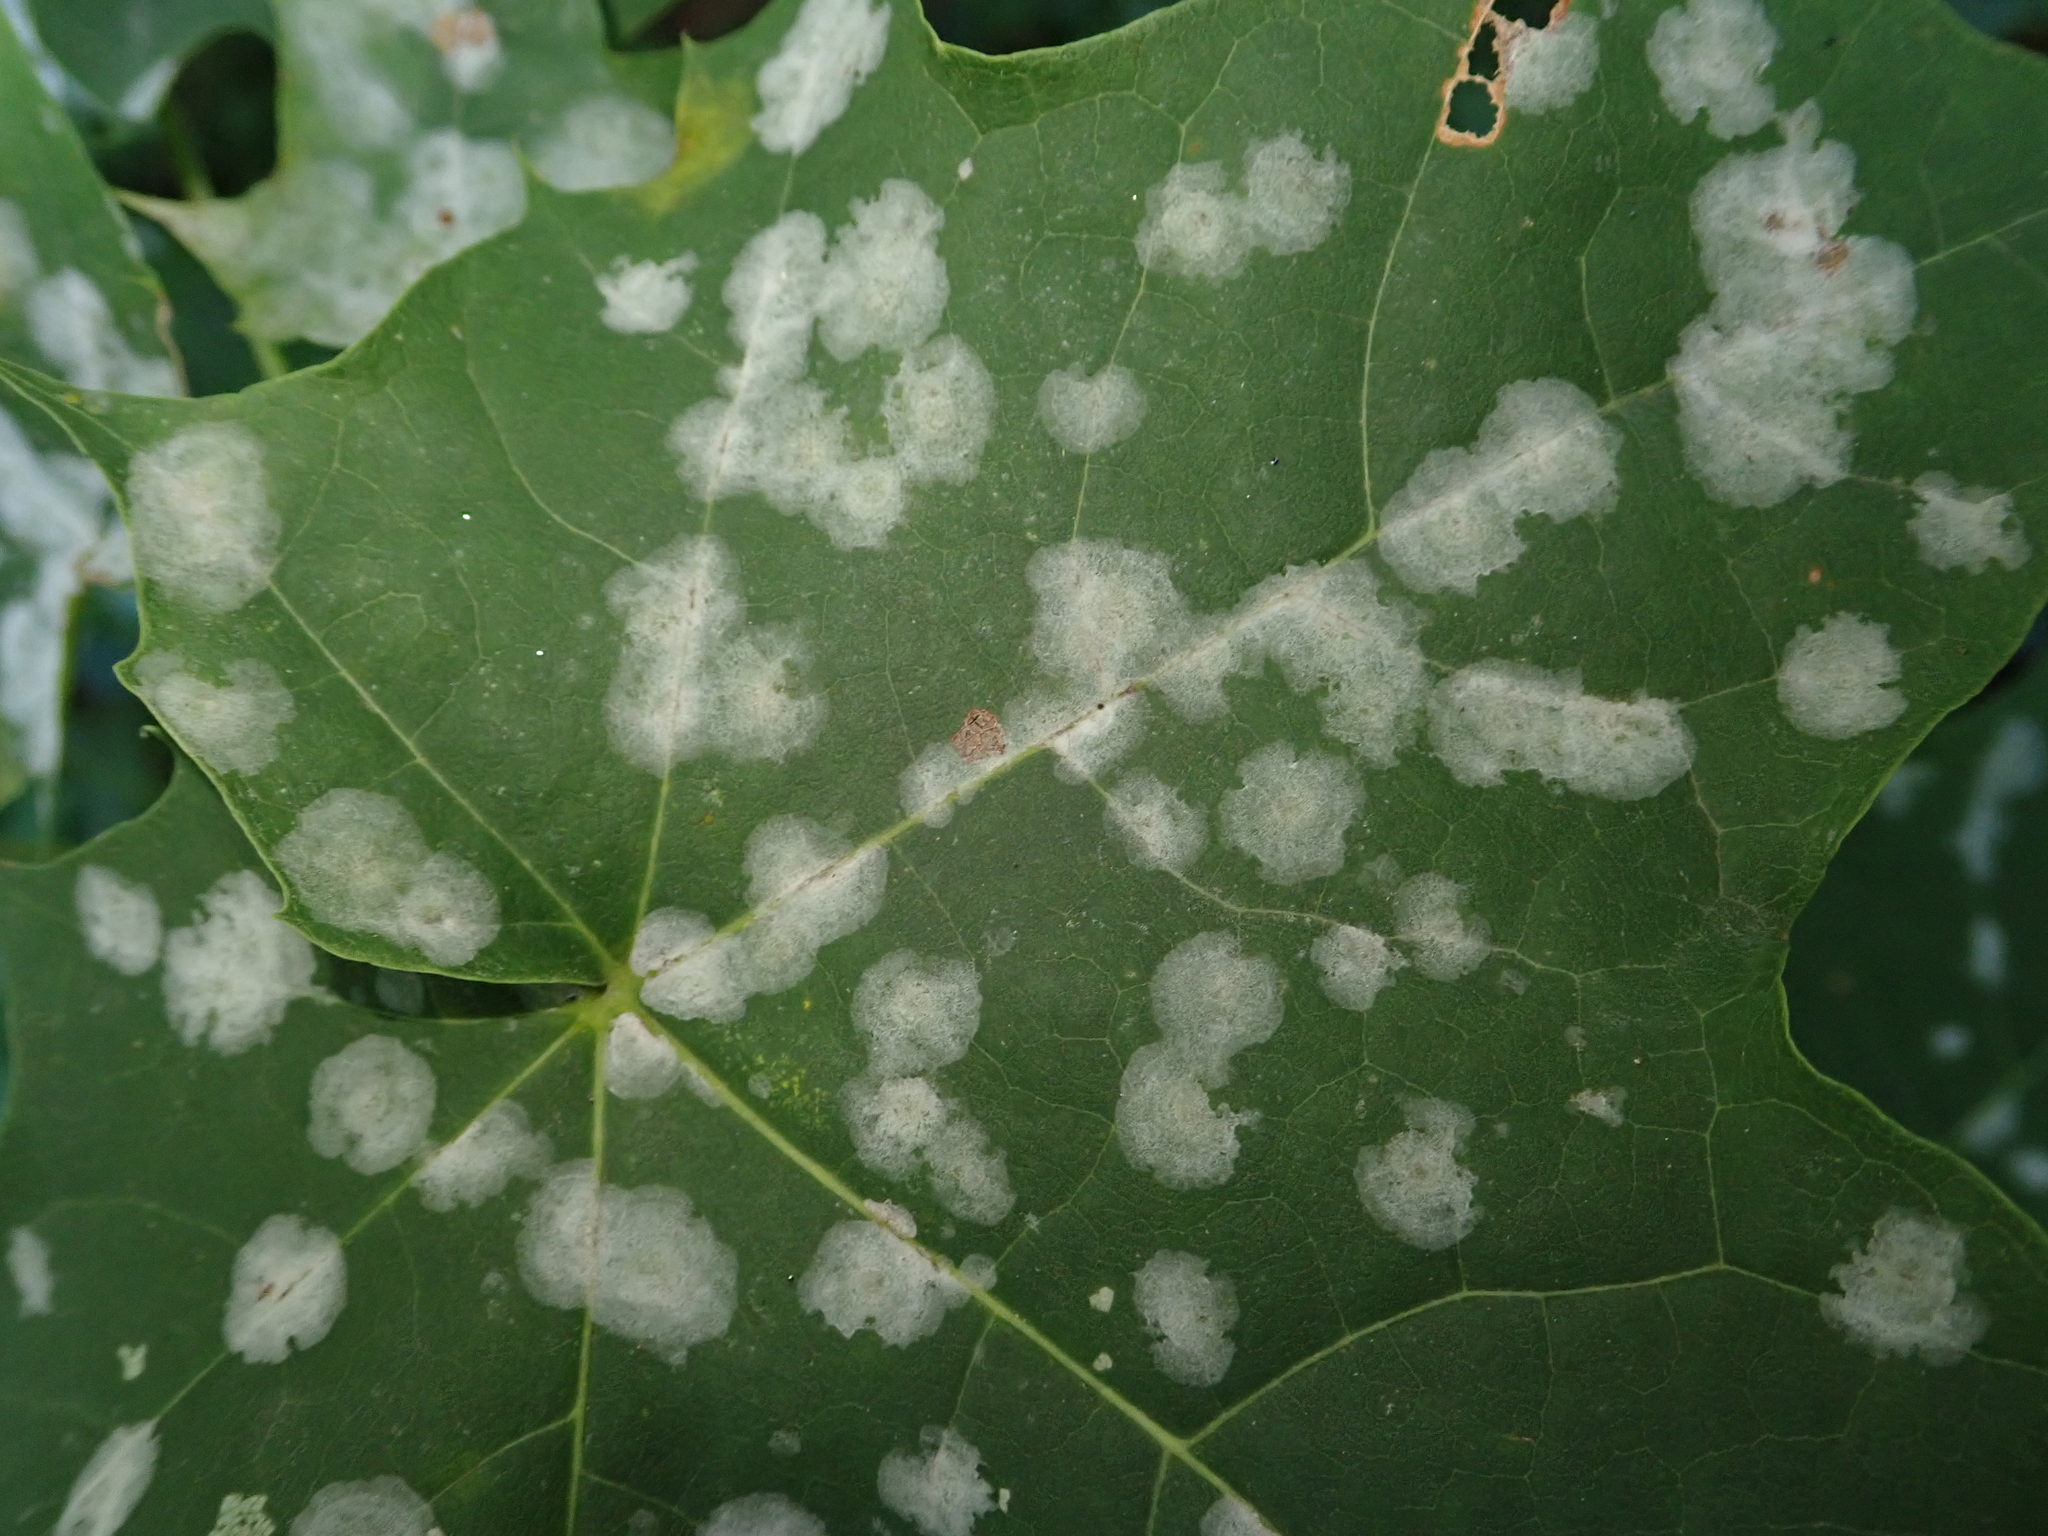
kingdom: Fungi
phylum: Ascomycota
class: Leotiomycetes
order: Helotiales
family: Erysiphaceae
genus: Sawadaea
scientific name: Sawadaea bicornis
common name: Maple mildew
